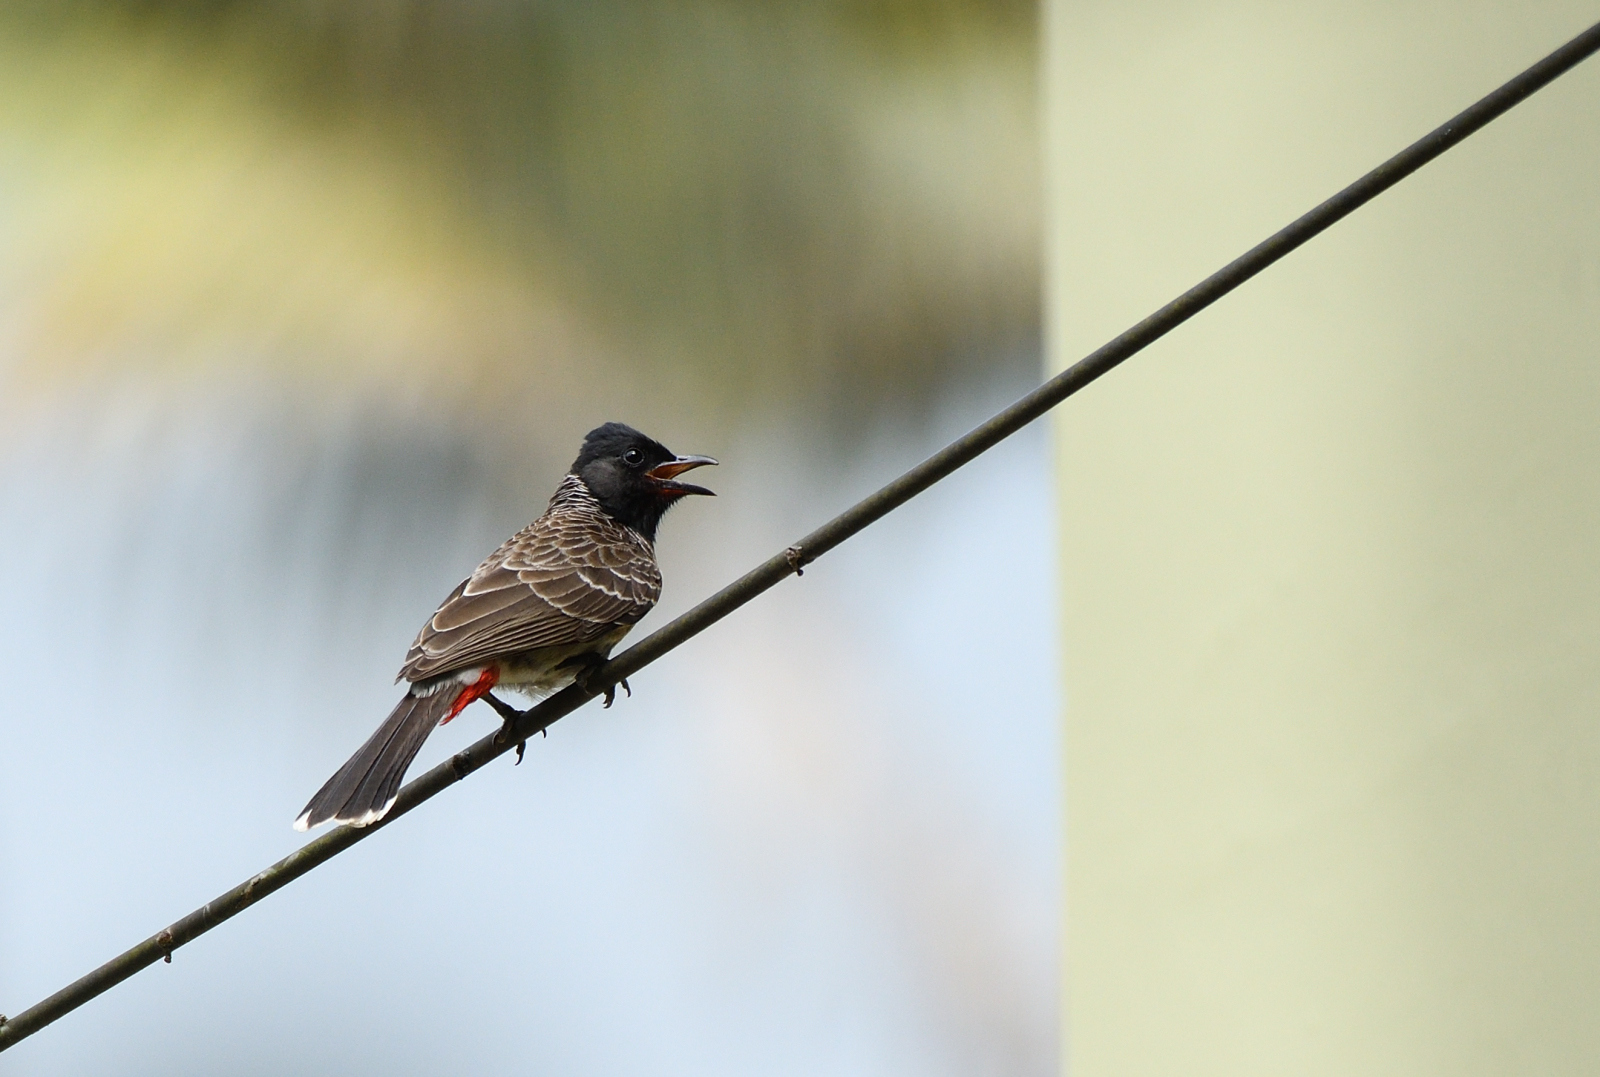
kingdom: Animalia
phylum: Chordata
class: Aves
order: Passeriformes
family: Pycnonotidae
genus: Pycnonotus
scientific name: Pycnonotus cafer
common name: Red-vented bulbul
